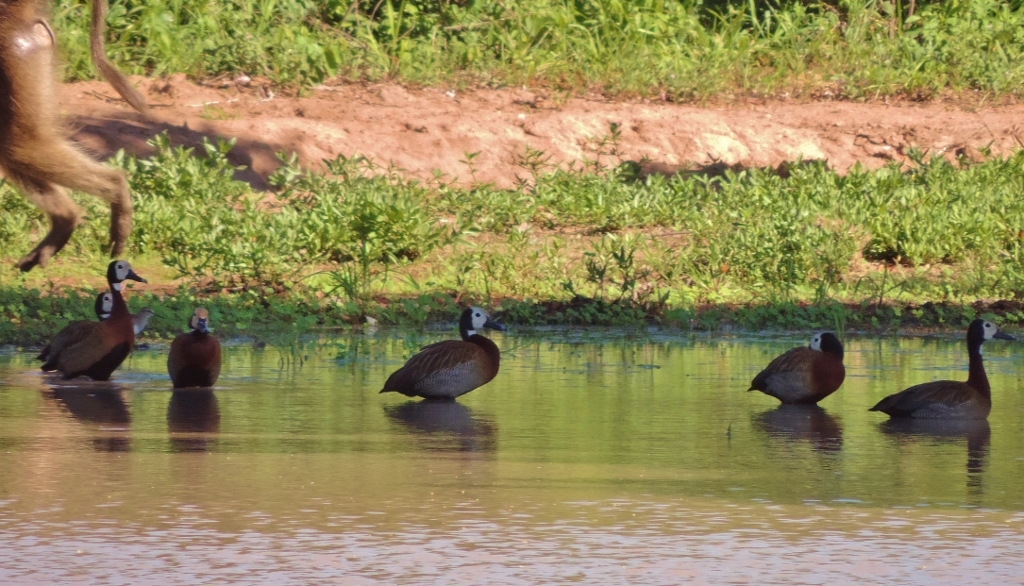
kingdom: Animalia
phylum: Chordata
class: Aves
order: Anseriformes
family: Anatidae
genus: Dendrocygna
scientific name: Dendrocygna viduata
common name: White-faced whistling duck
